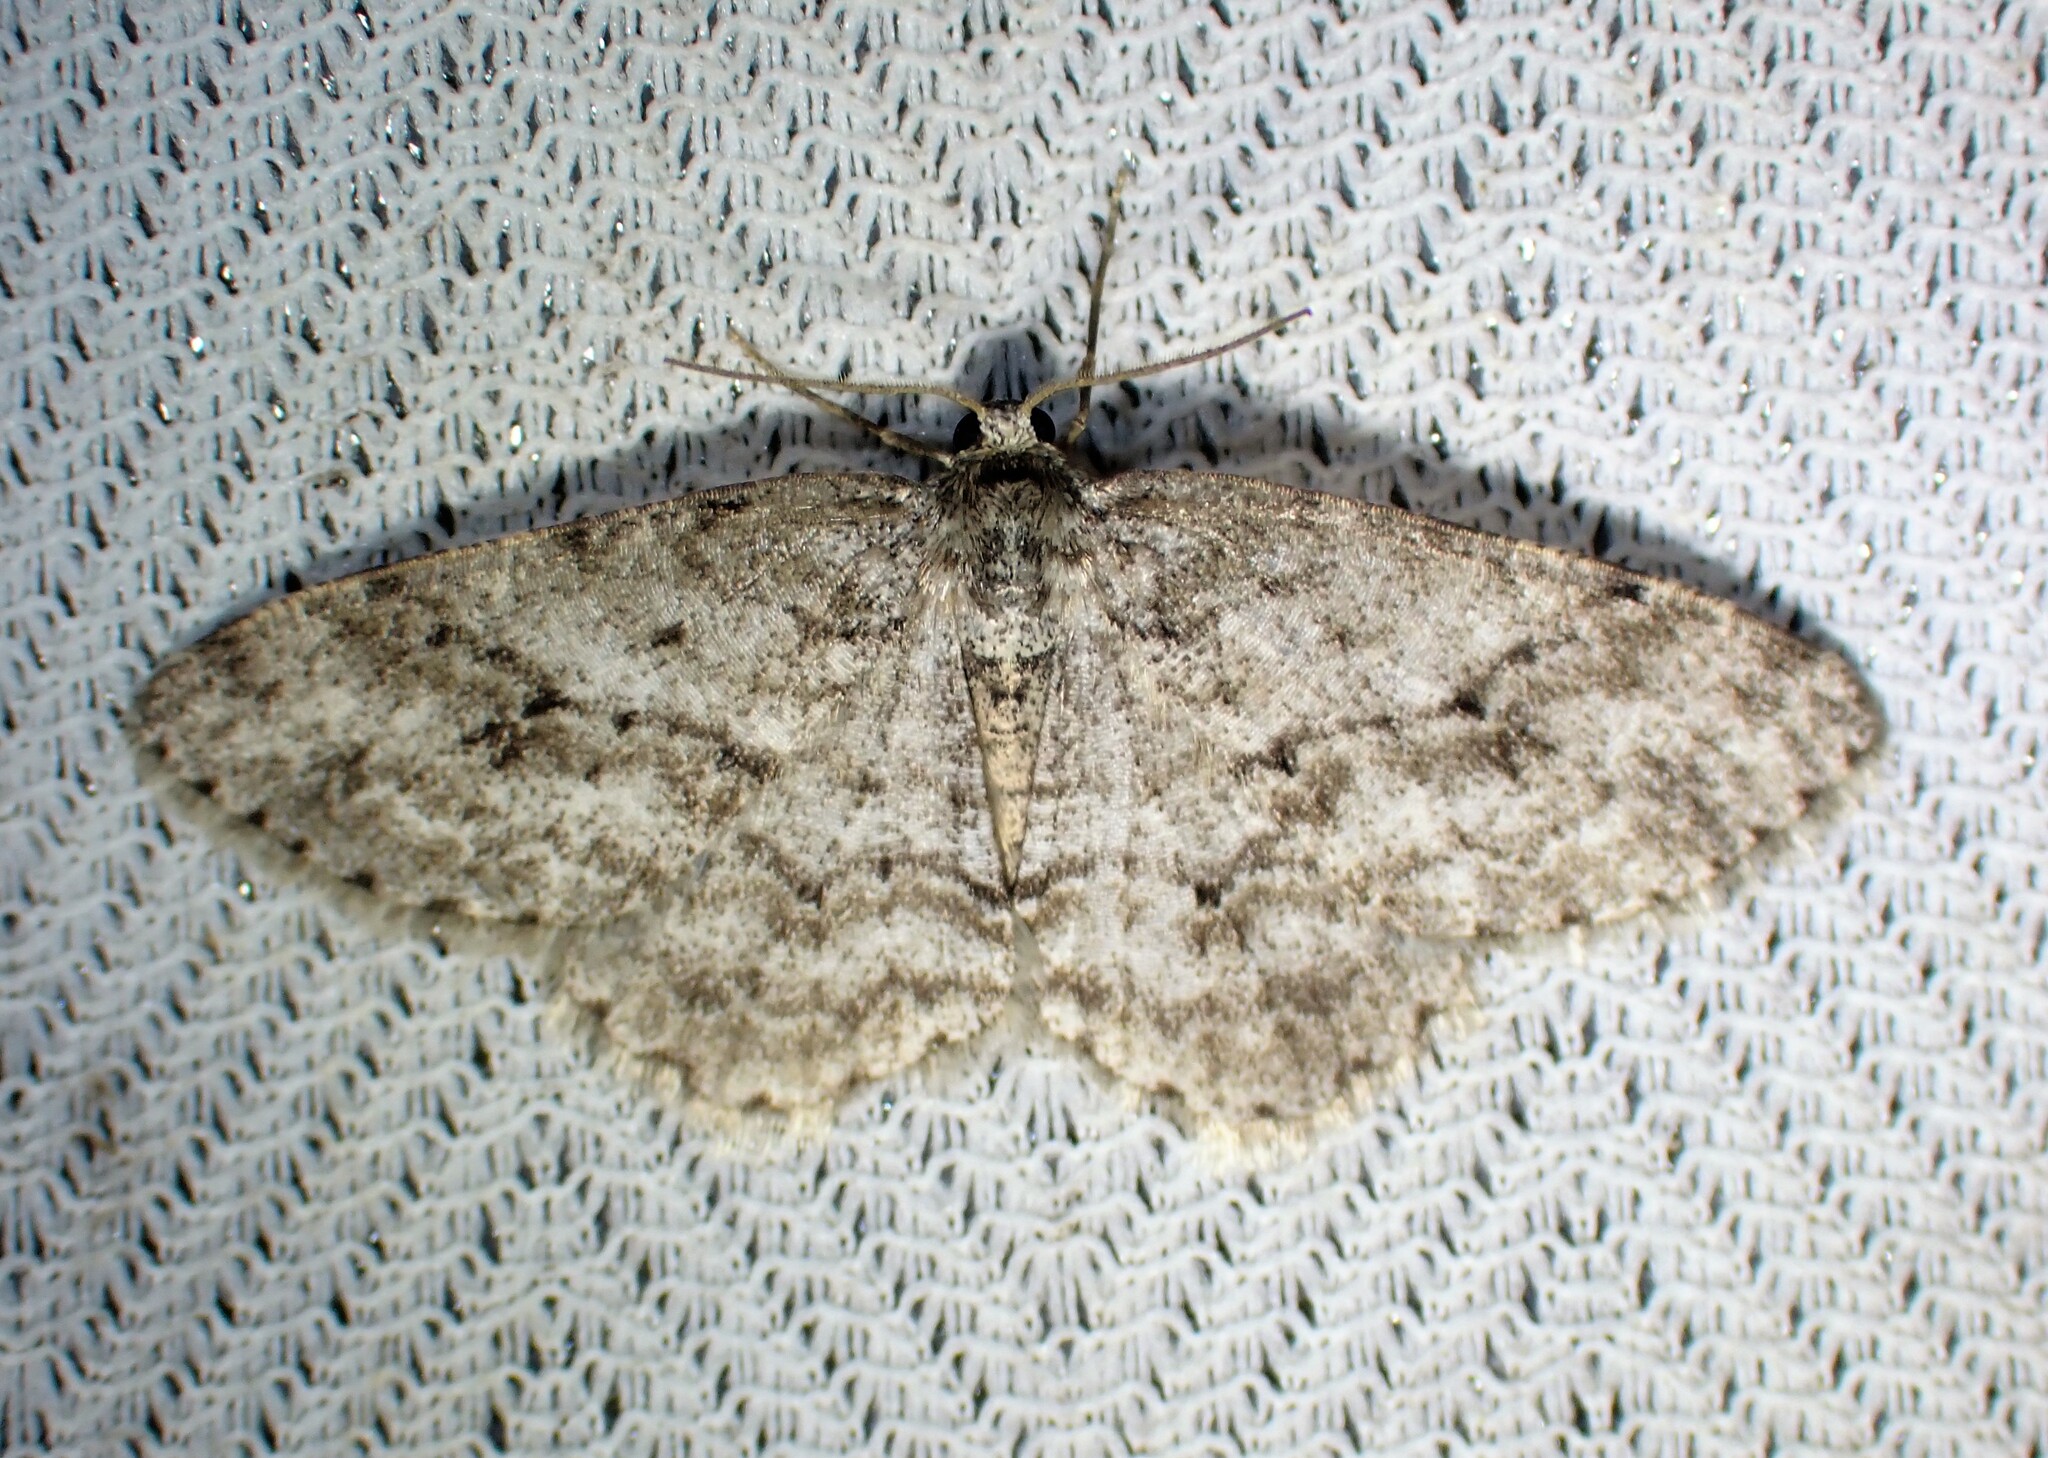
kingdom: Animalia
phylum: Arthropoda
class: Insecta
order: Lepidoptera
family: Geometridae
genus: Ectropis
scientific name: Ectropis crepuscularia
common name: Engrailed
